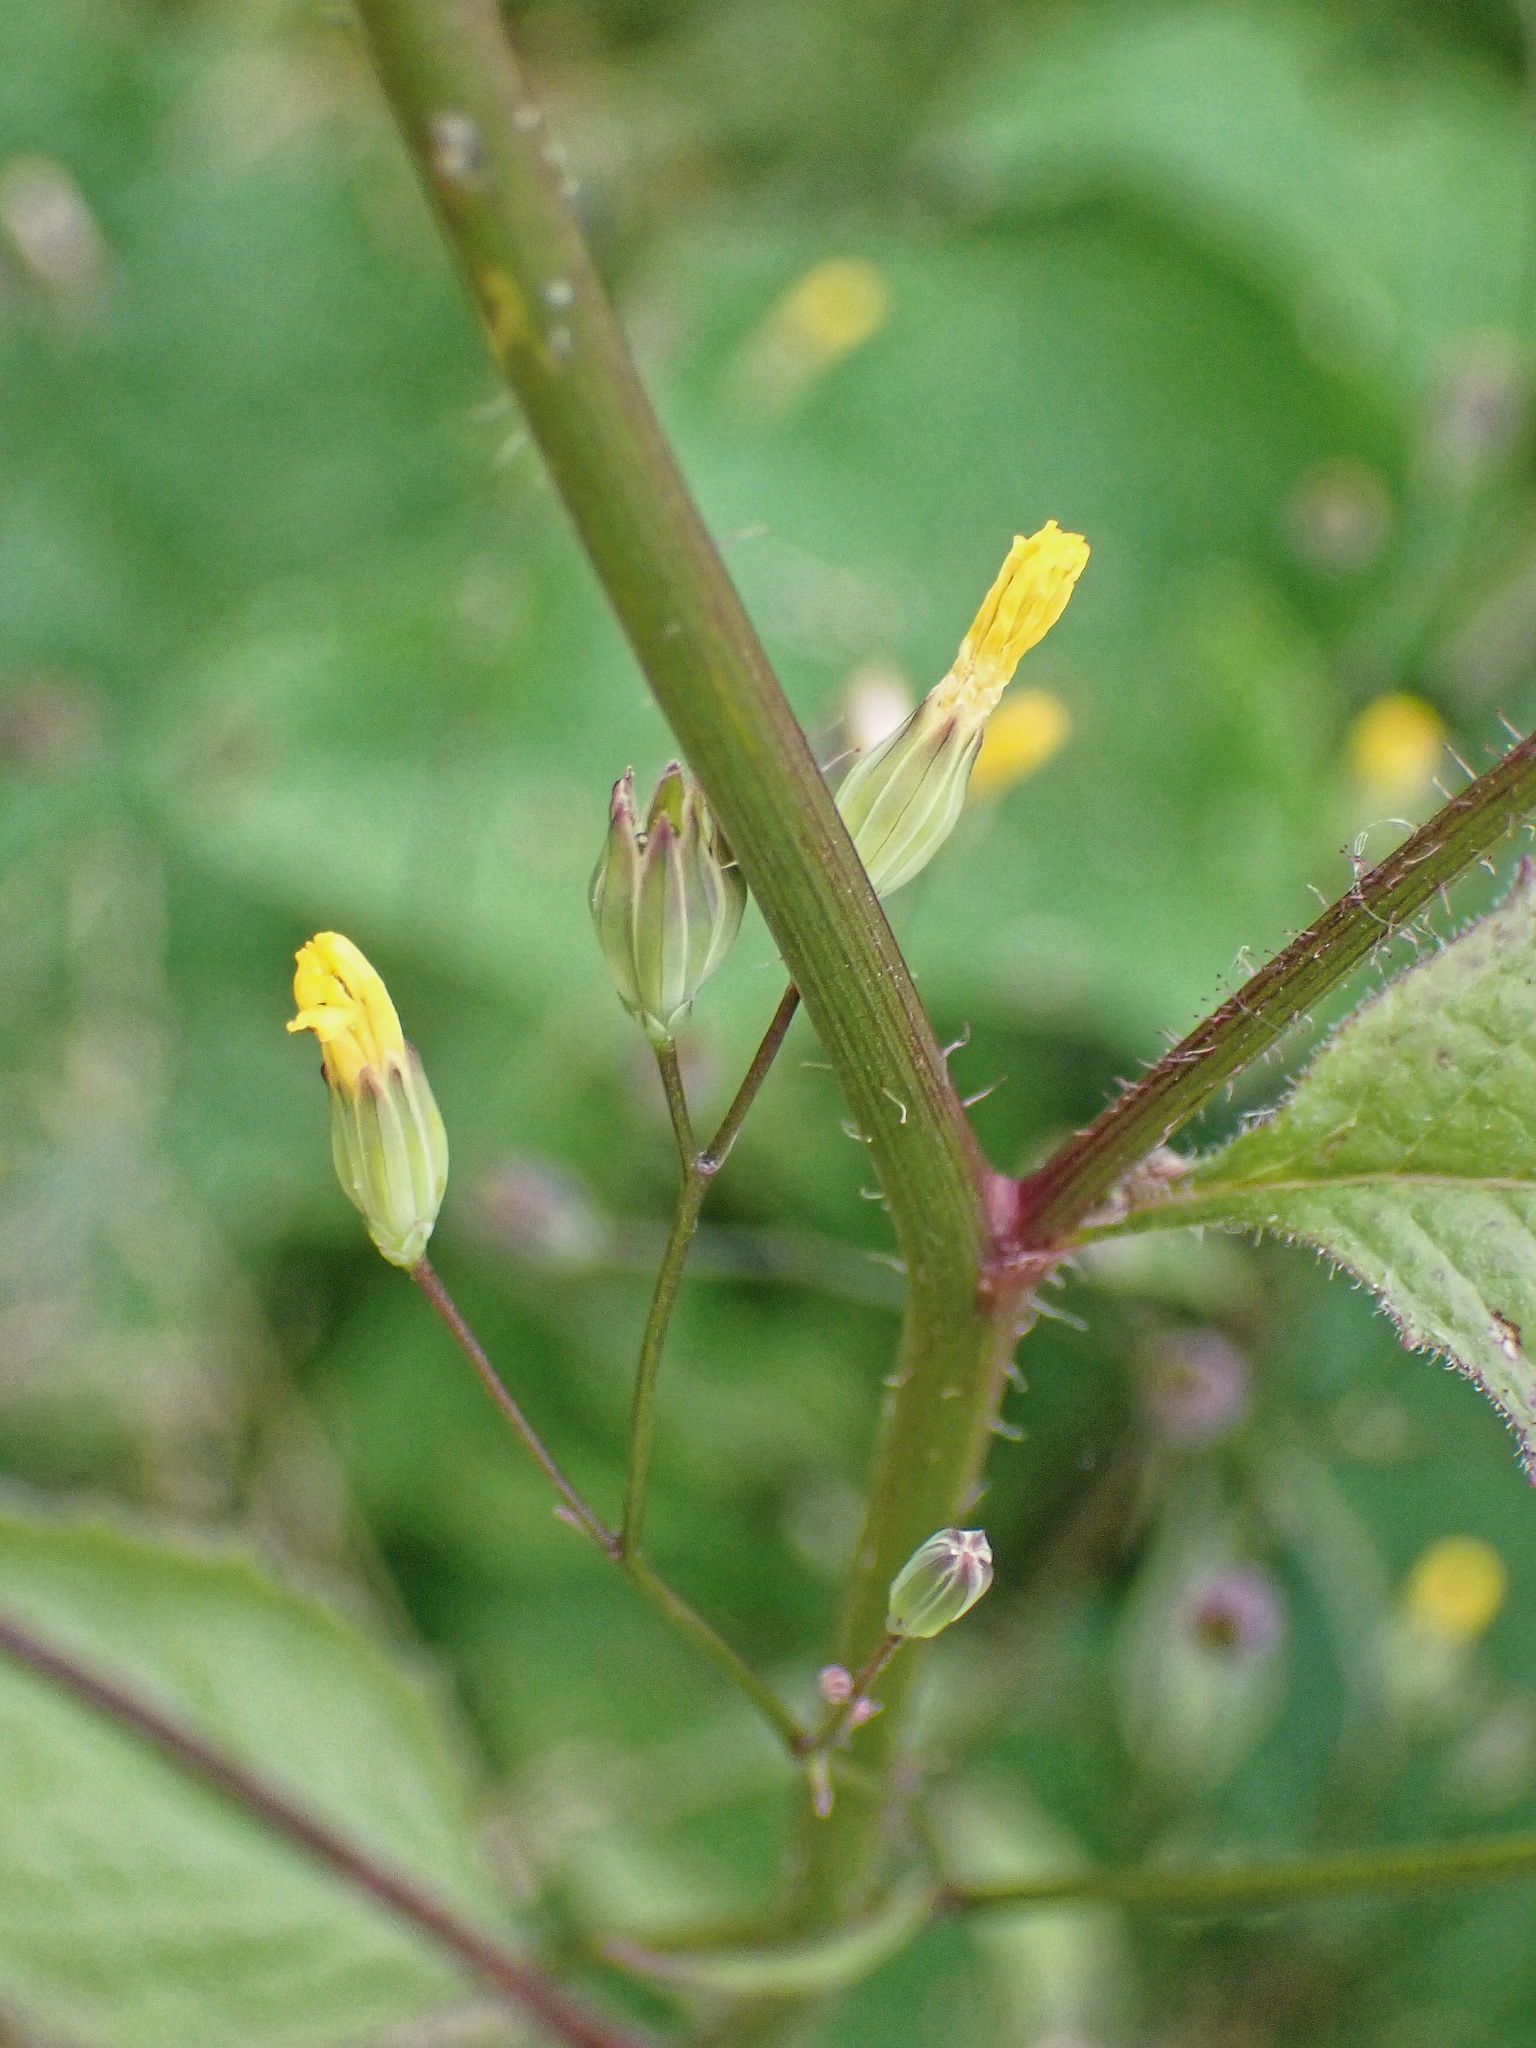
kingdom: Plantae
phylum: Tracheophyta
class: Magnoliopsida
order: Asterales
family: Asteraceae
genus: Lapsana
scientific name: Lapsana communis
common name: Nipplewort
